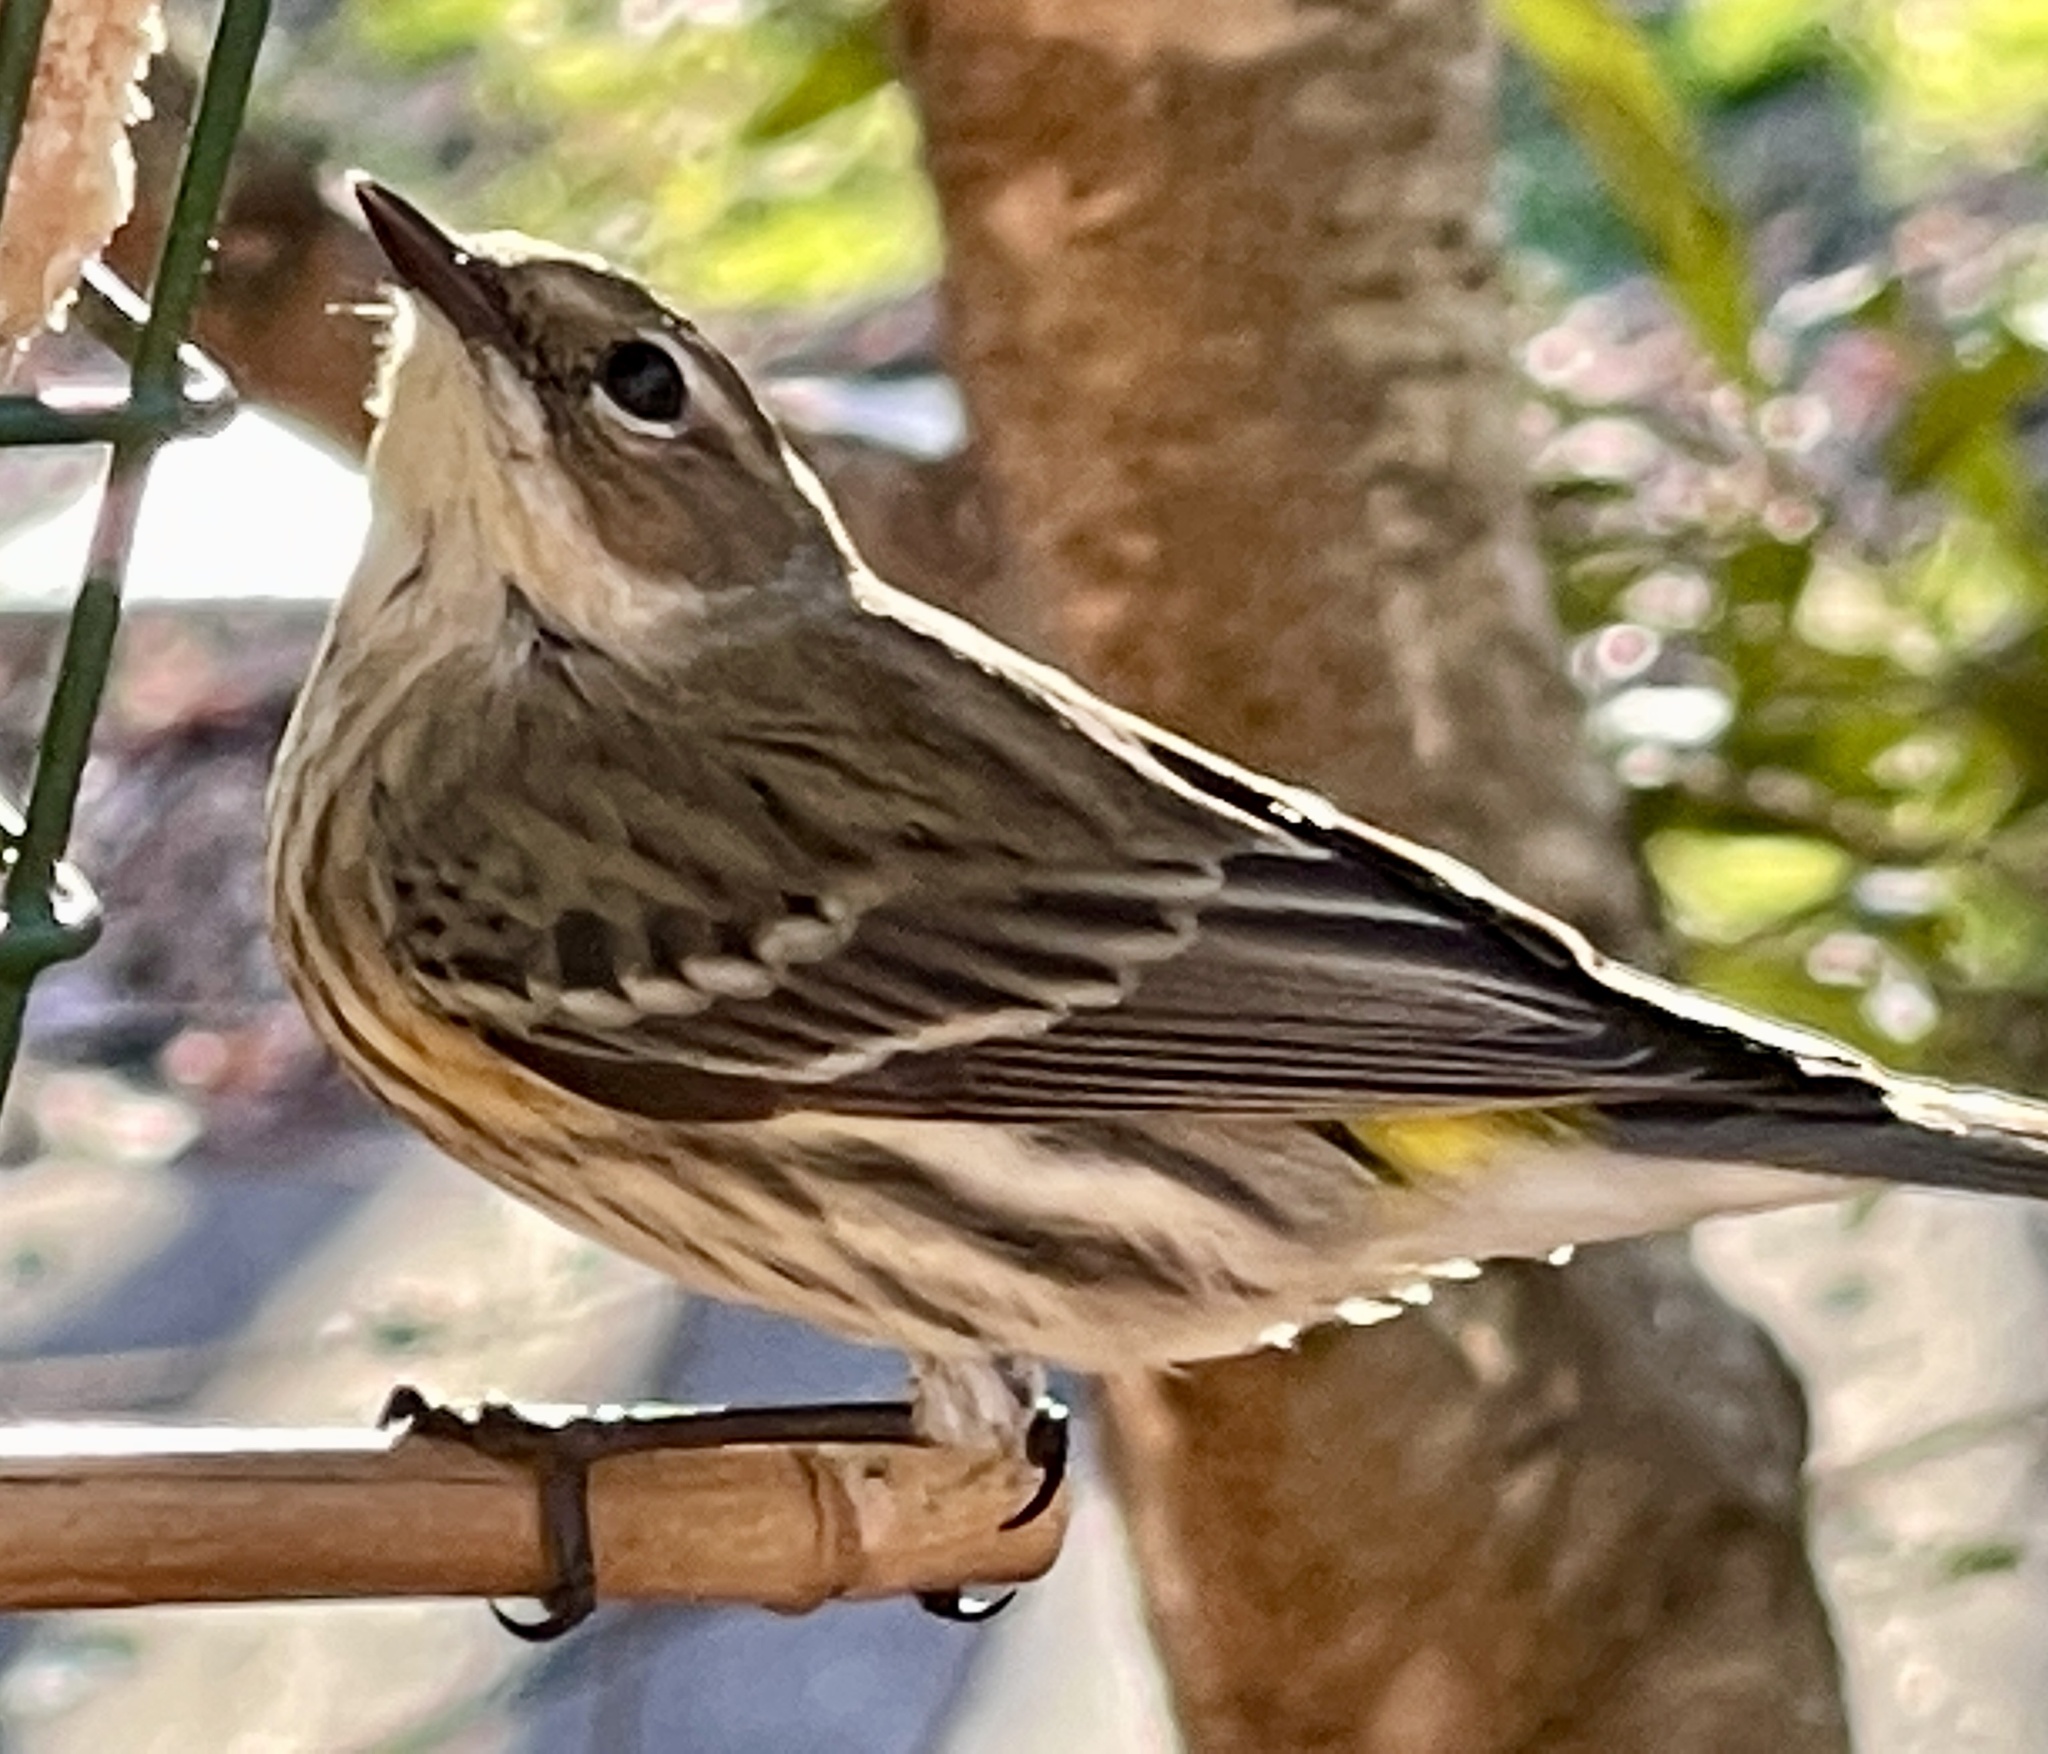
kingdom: Animalia
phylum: Chordata
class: Aves
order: Passeriformes
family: Parulidae
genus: Setophaga
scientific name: Setophaga coronata
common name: Myrtle warbler
